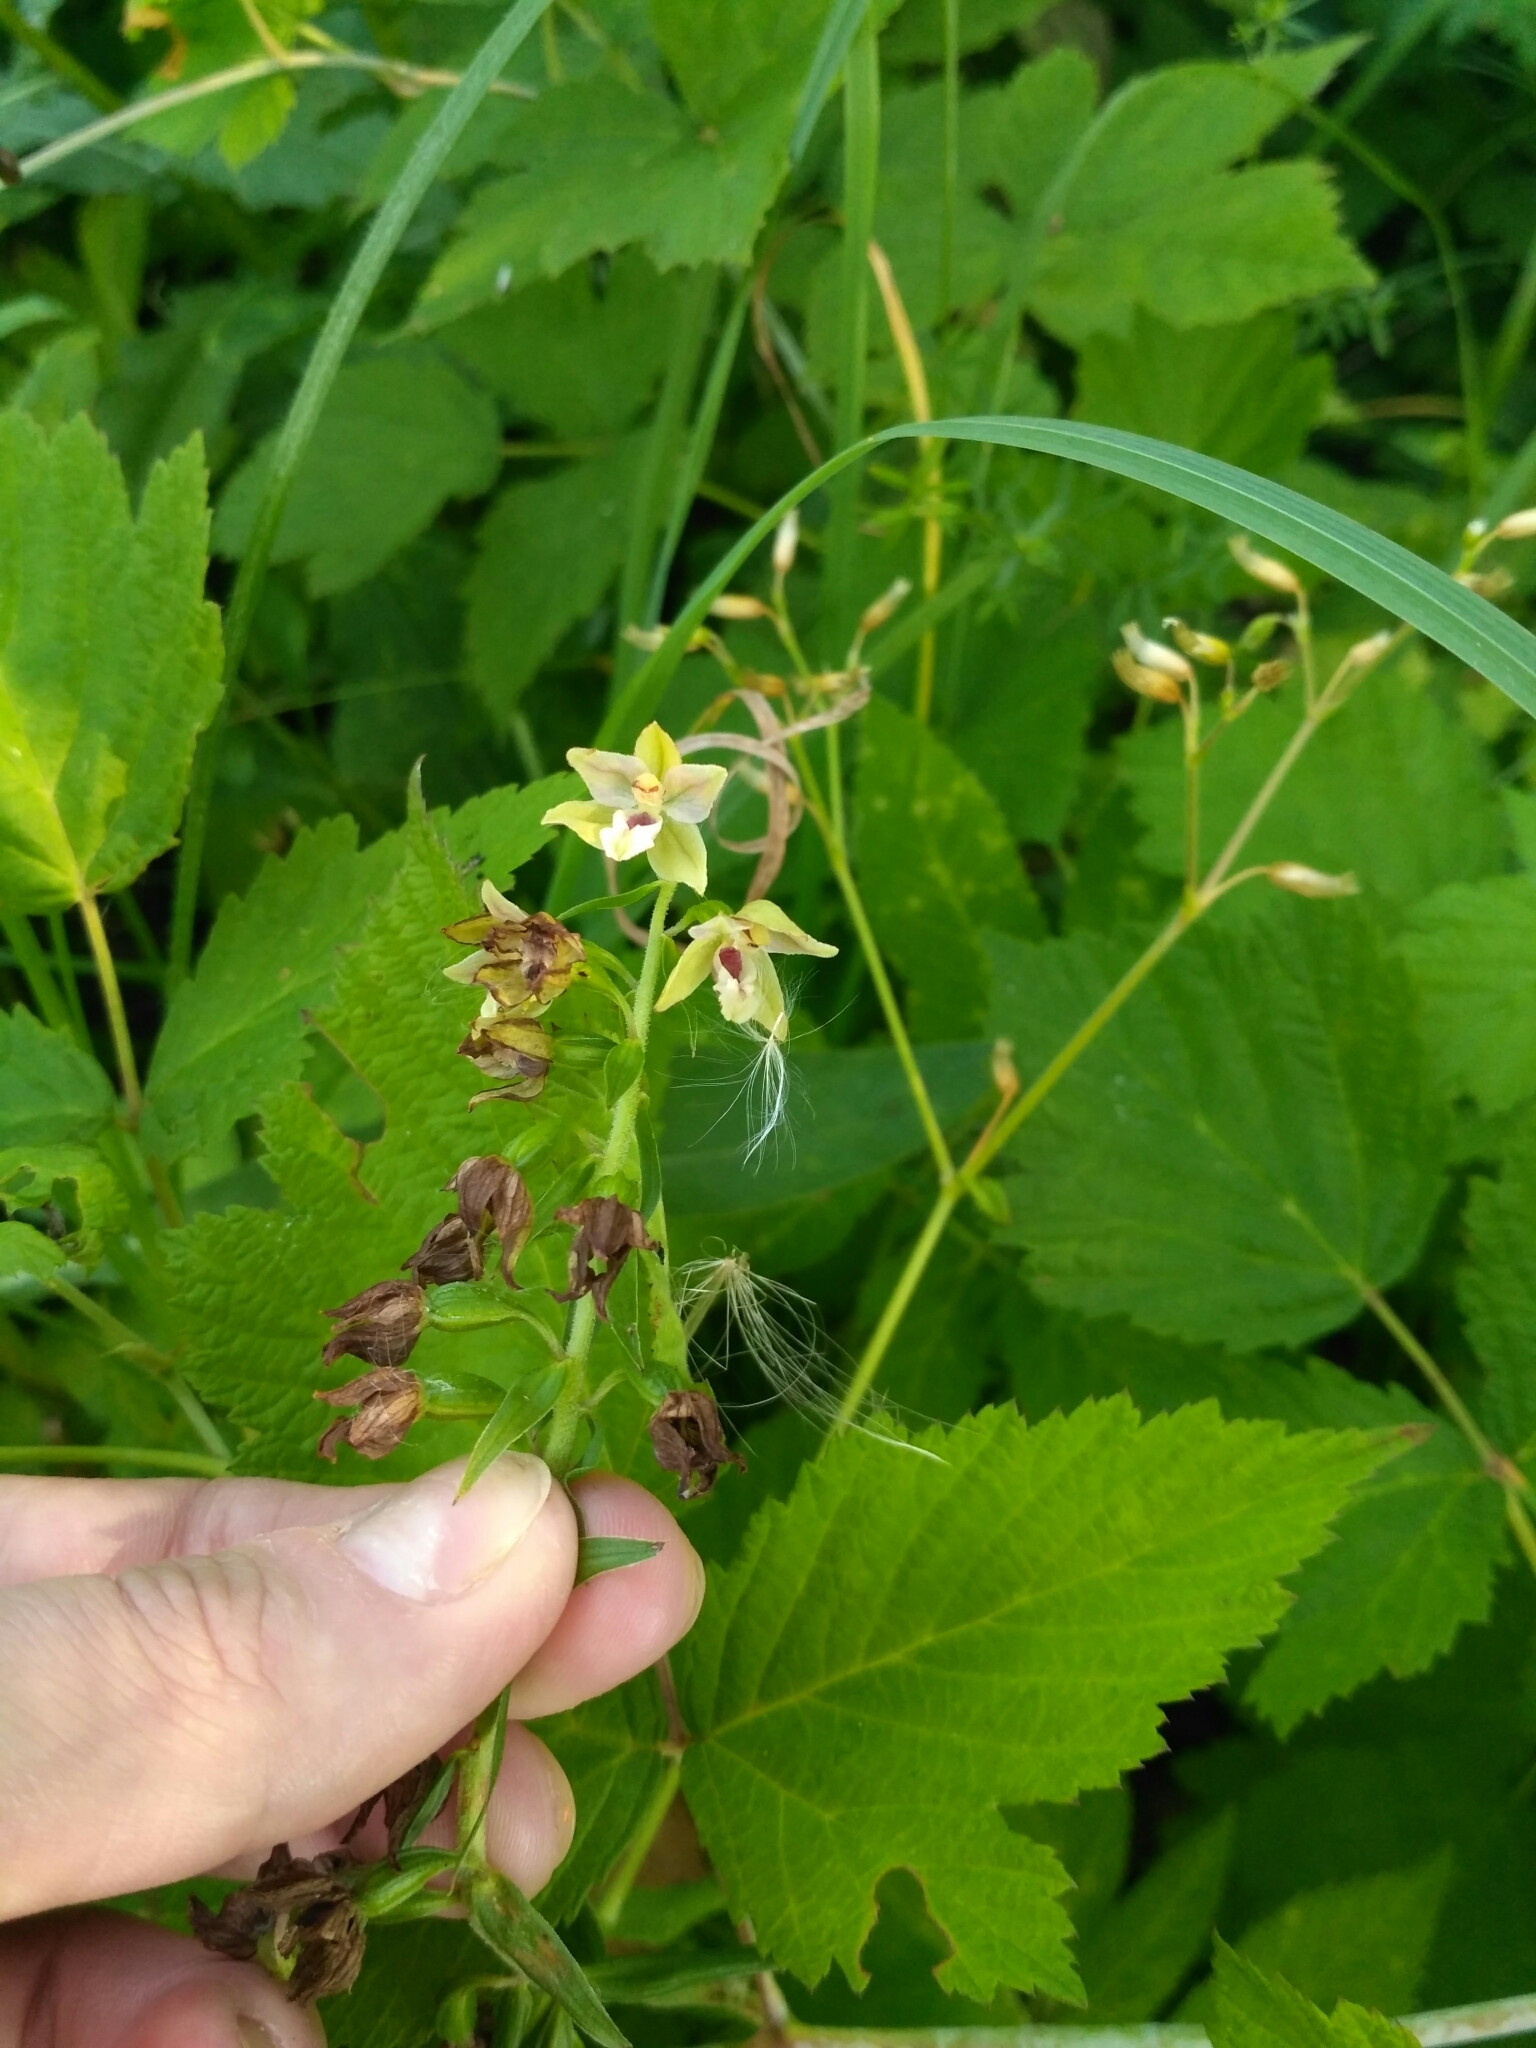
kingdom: Plantae
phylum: Tracheophyta
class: Liliopsida
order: Asparagales
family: Orchidaceae
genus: Epipactis
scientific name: Epipactis helleborine
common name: Broad-leaved helleborine
